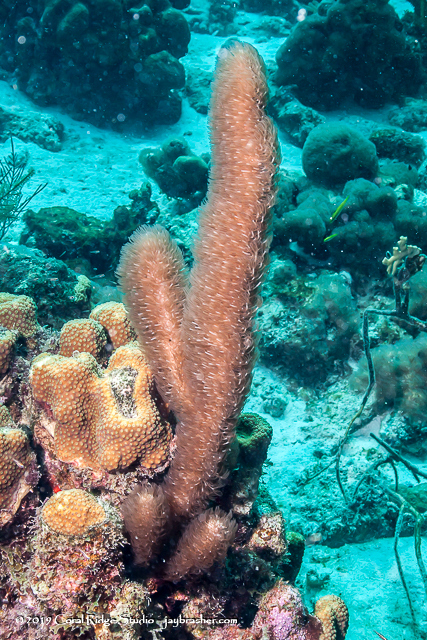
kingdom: Animalia
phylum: Cnidaria
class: Anthozoa
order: Scleralcyonacea
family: Briareidae
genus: Briareum
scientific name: Briareum asbestinum
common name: Corky sea finger
